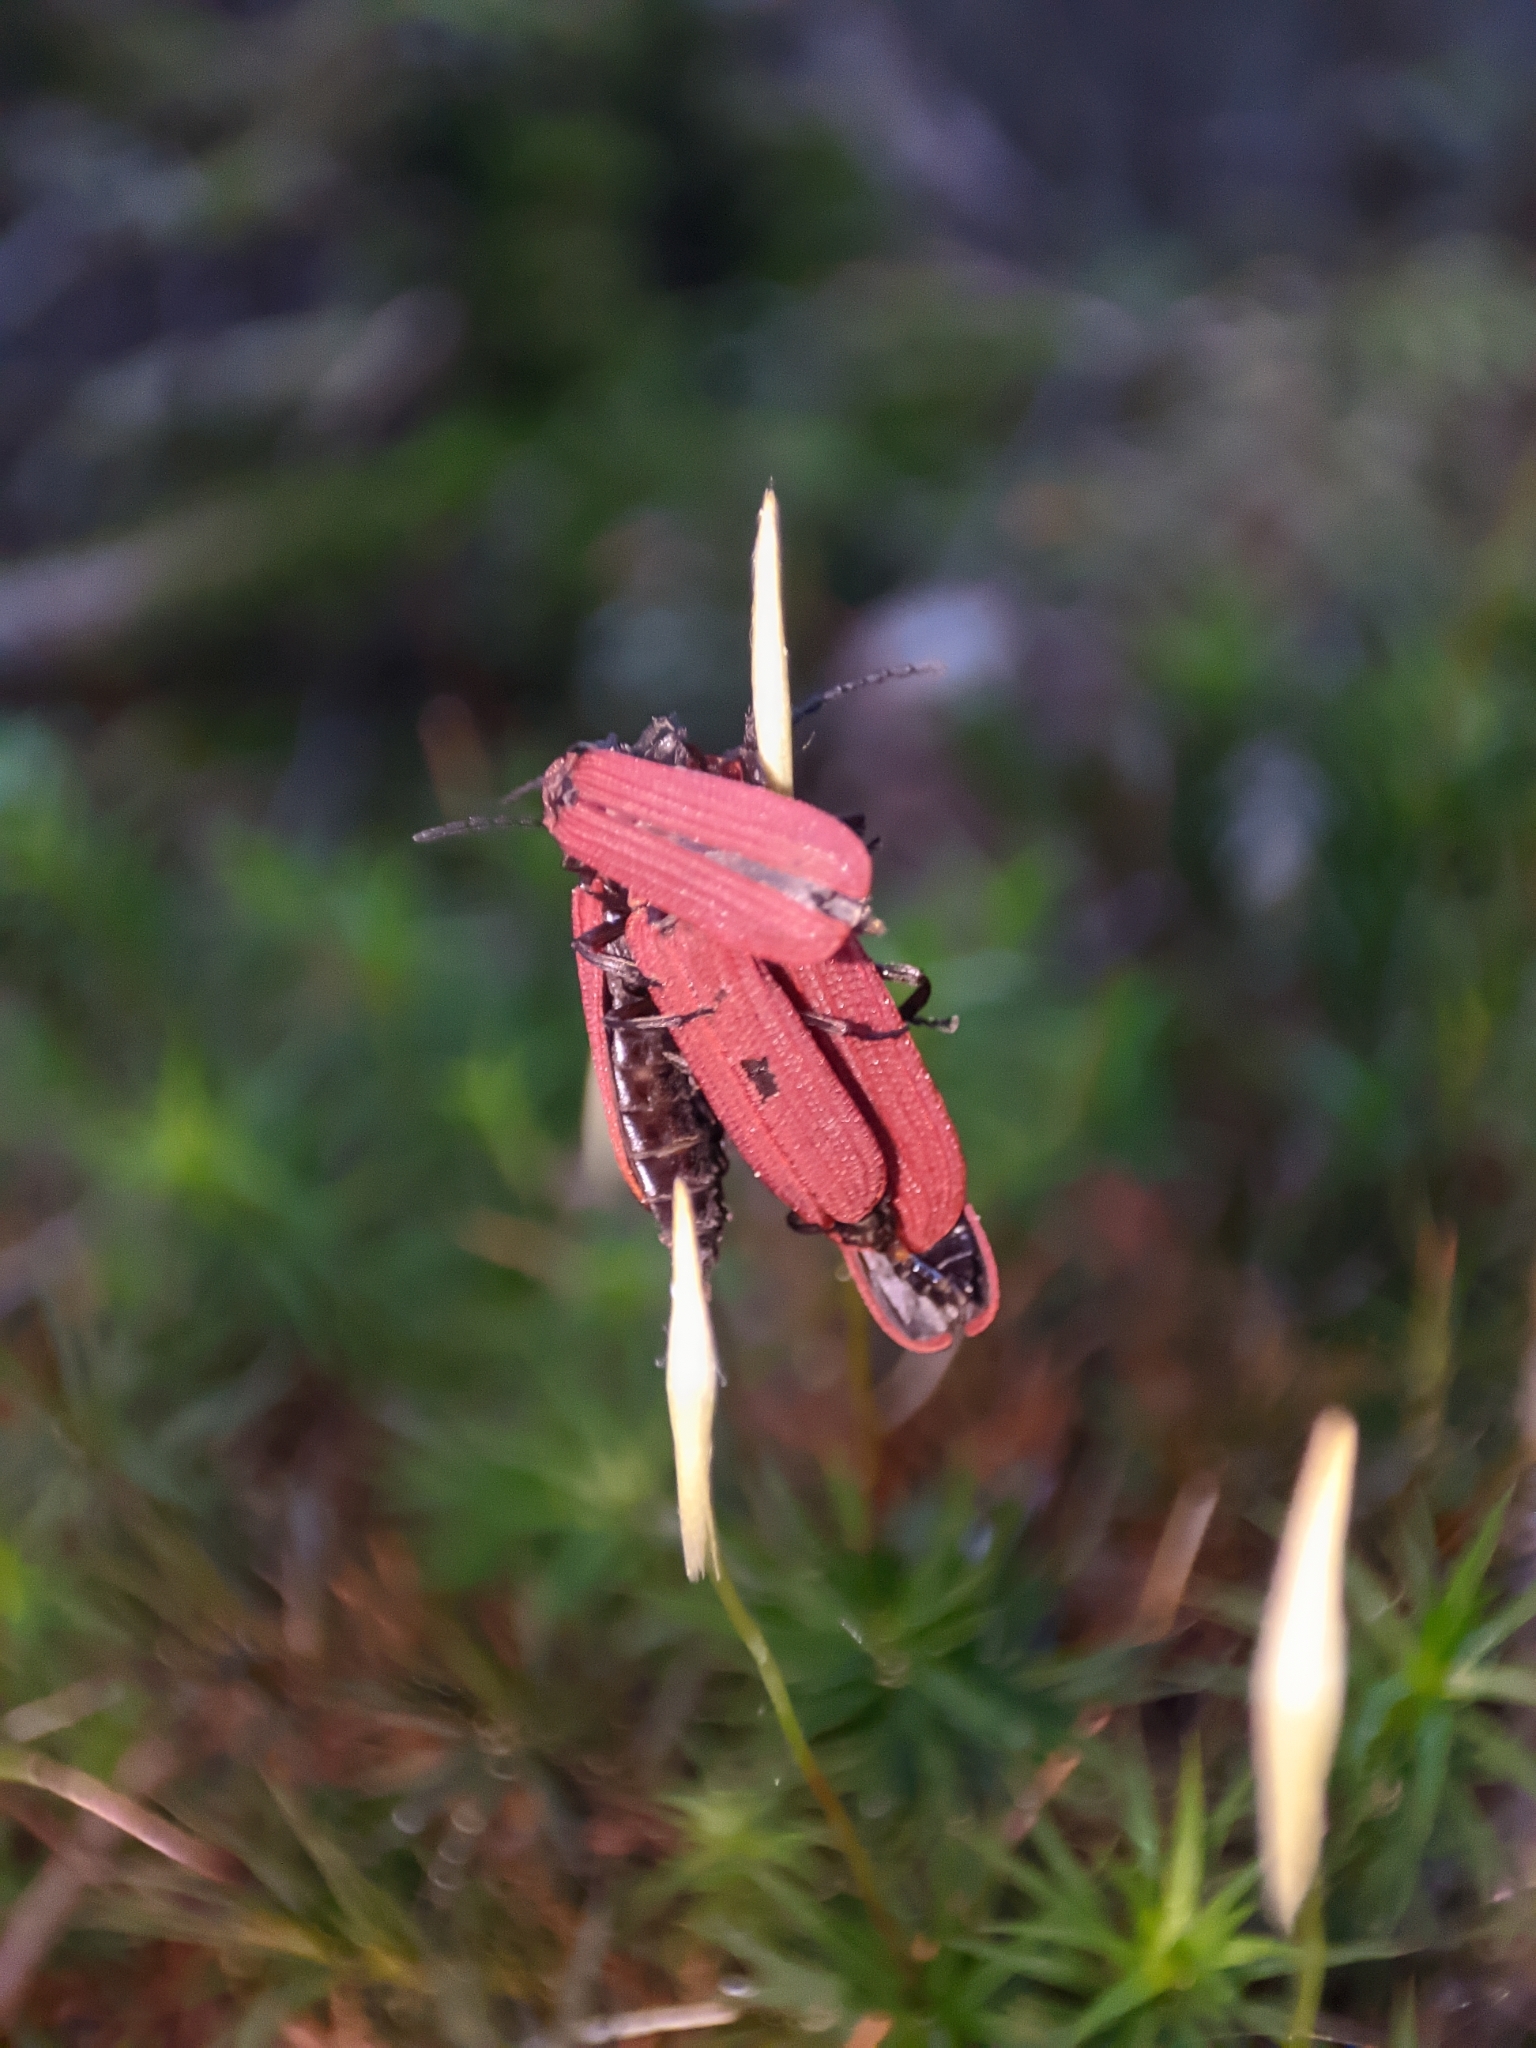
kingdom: Animalia
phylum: Arthropoda
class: Insecta
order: Coleoptera
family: Lycidae
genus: Dictyoptera
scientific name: Dictyoptera aurora
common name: Golden net-winged beetle
